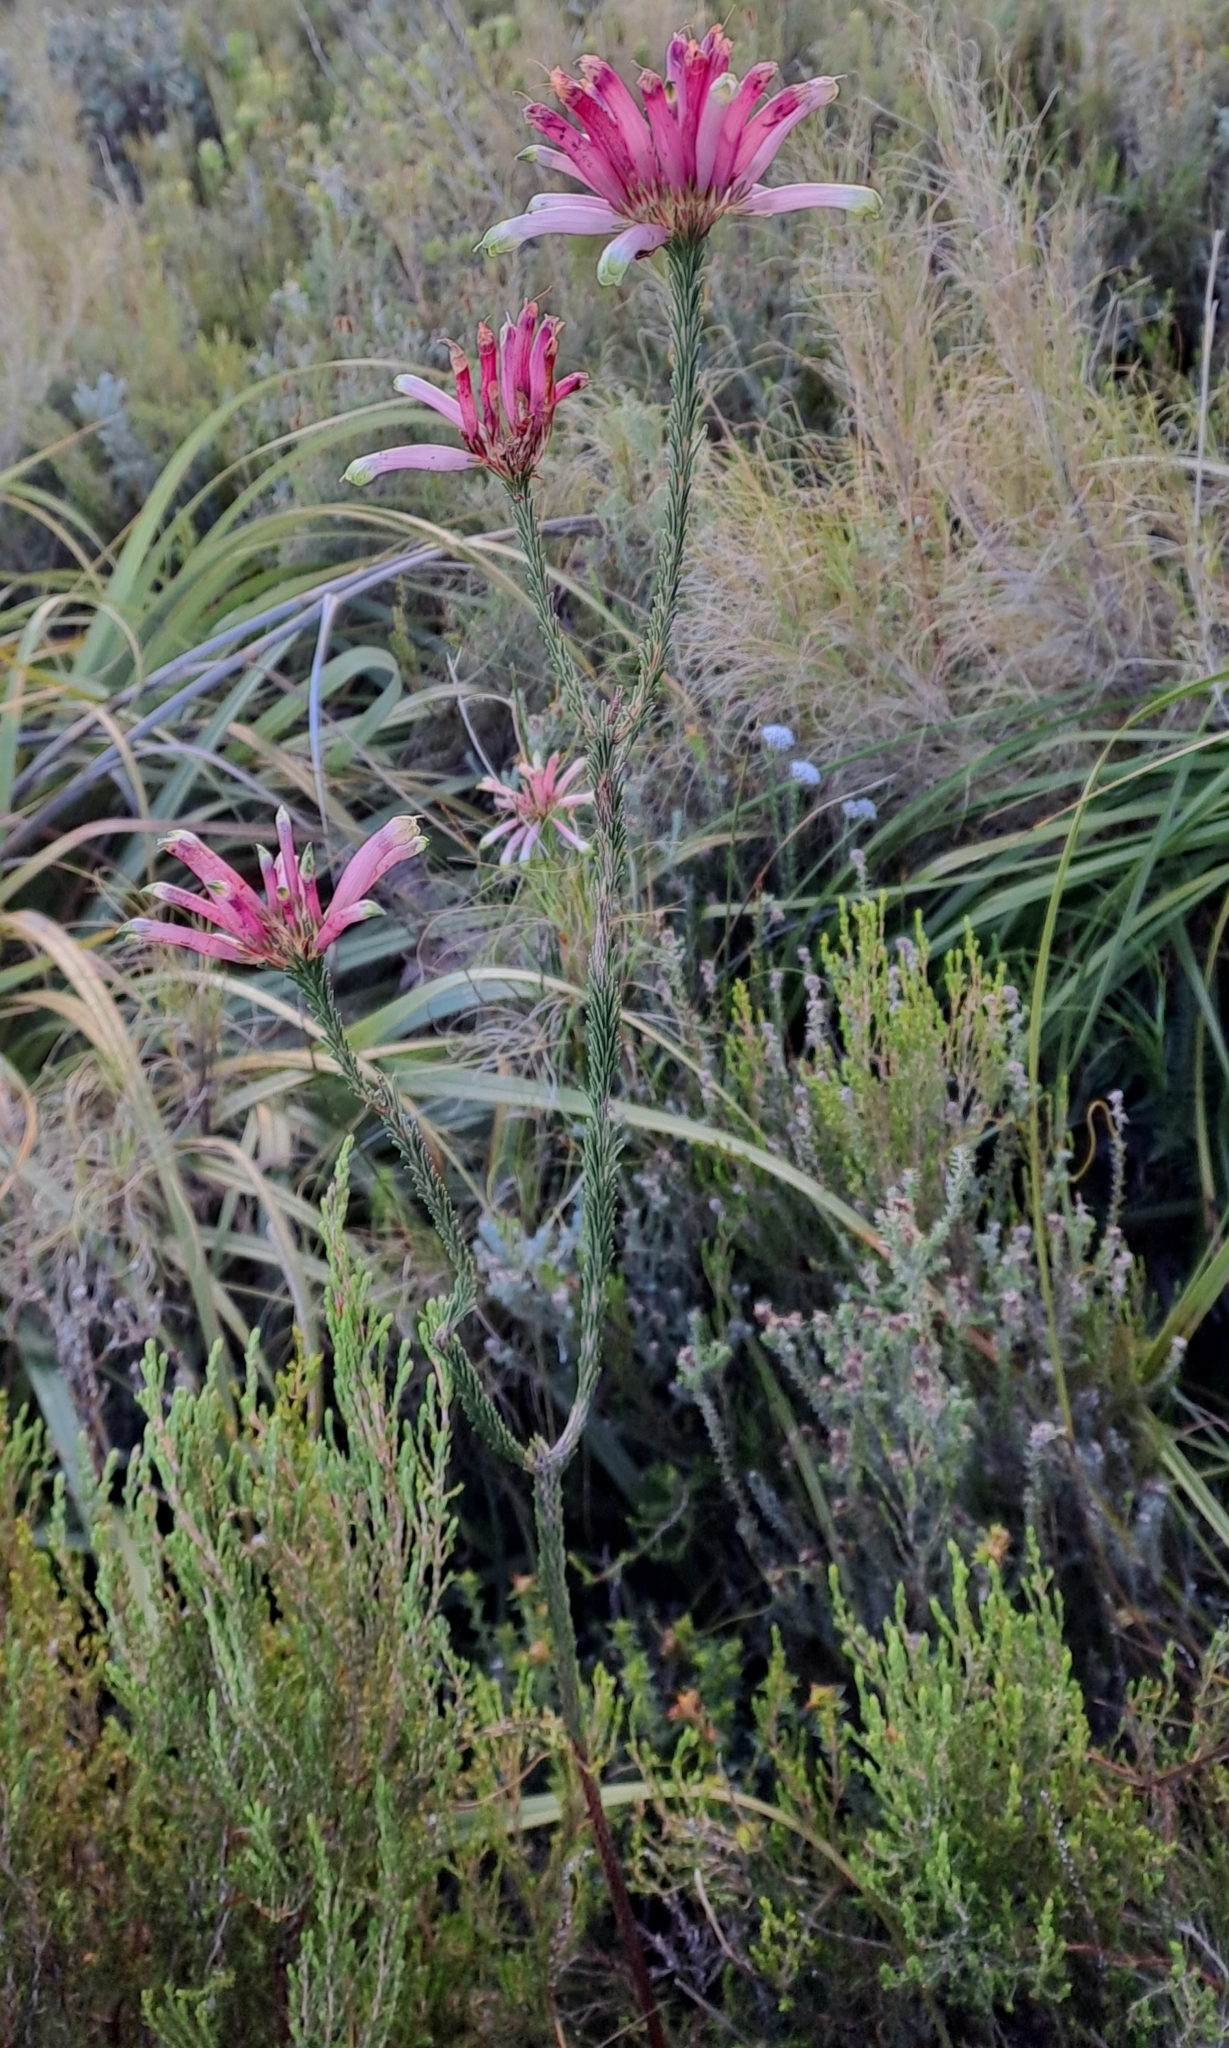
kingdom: Plantae
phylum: Tracheophyta
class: Magnoliopsida
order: Ericales
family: Ericaceae
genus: Erica
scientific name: Erica fascicularis
